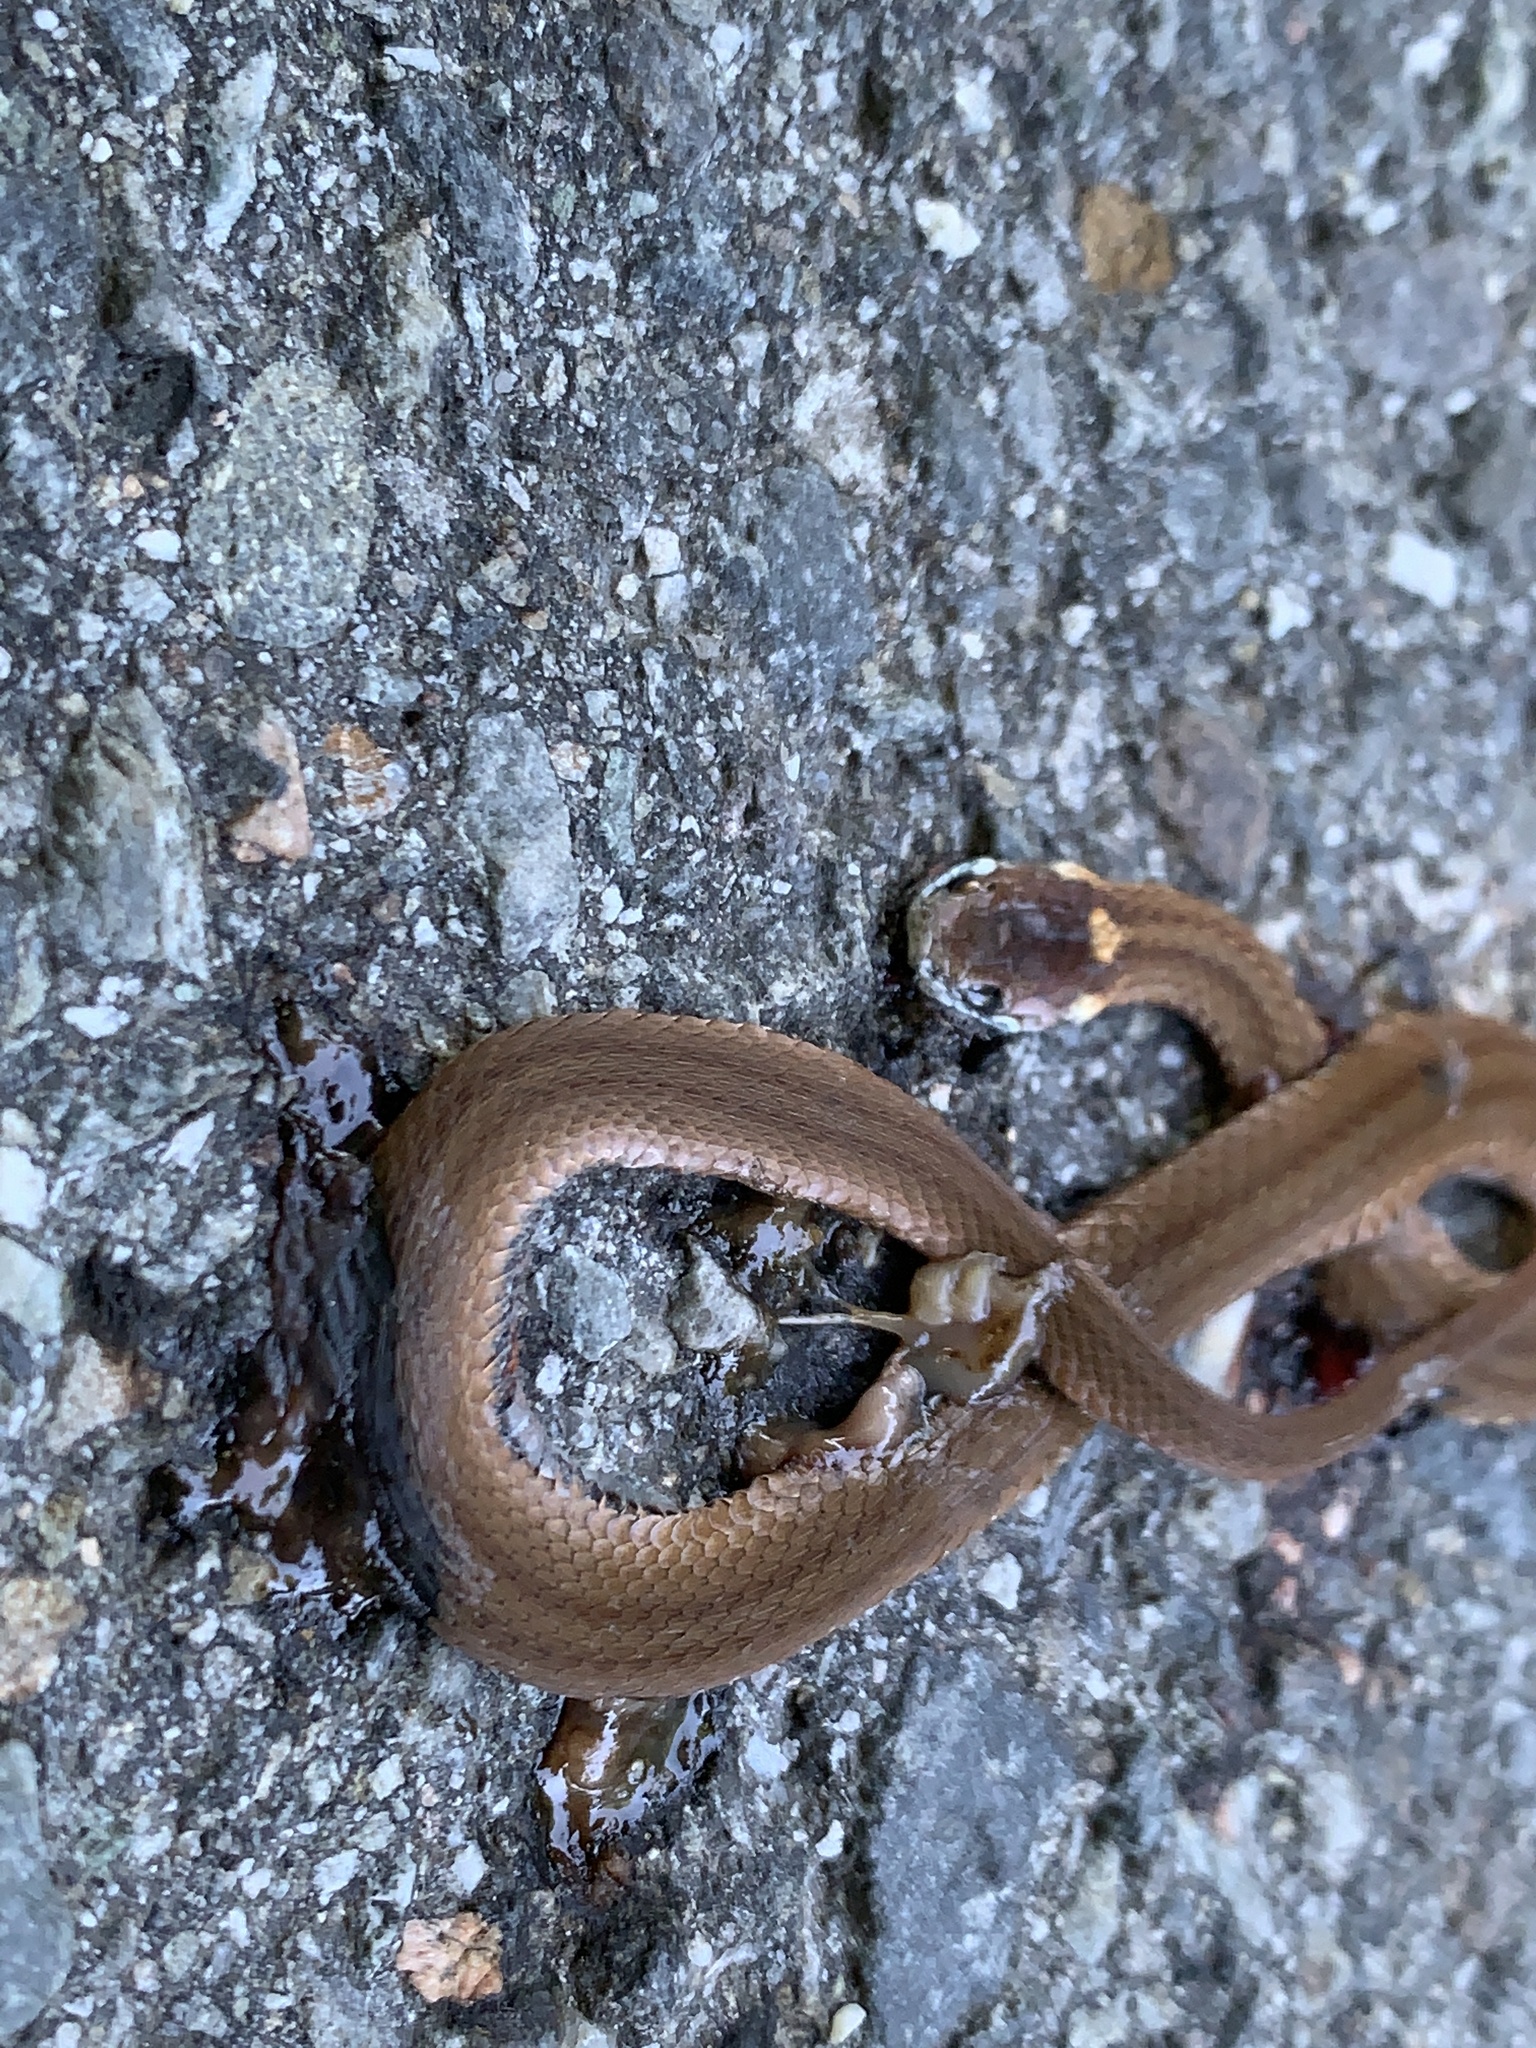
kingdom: Animalia
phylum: Chordata
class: Squamata
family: Colubridae
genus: Storeria
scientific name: Storeria occipitomaculata
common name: Redbelly snake
